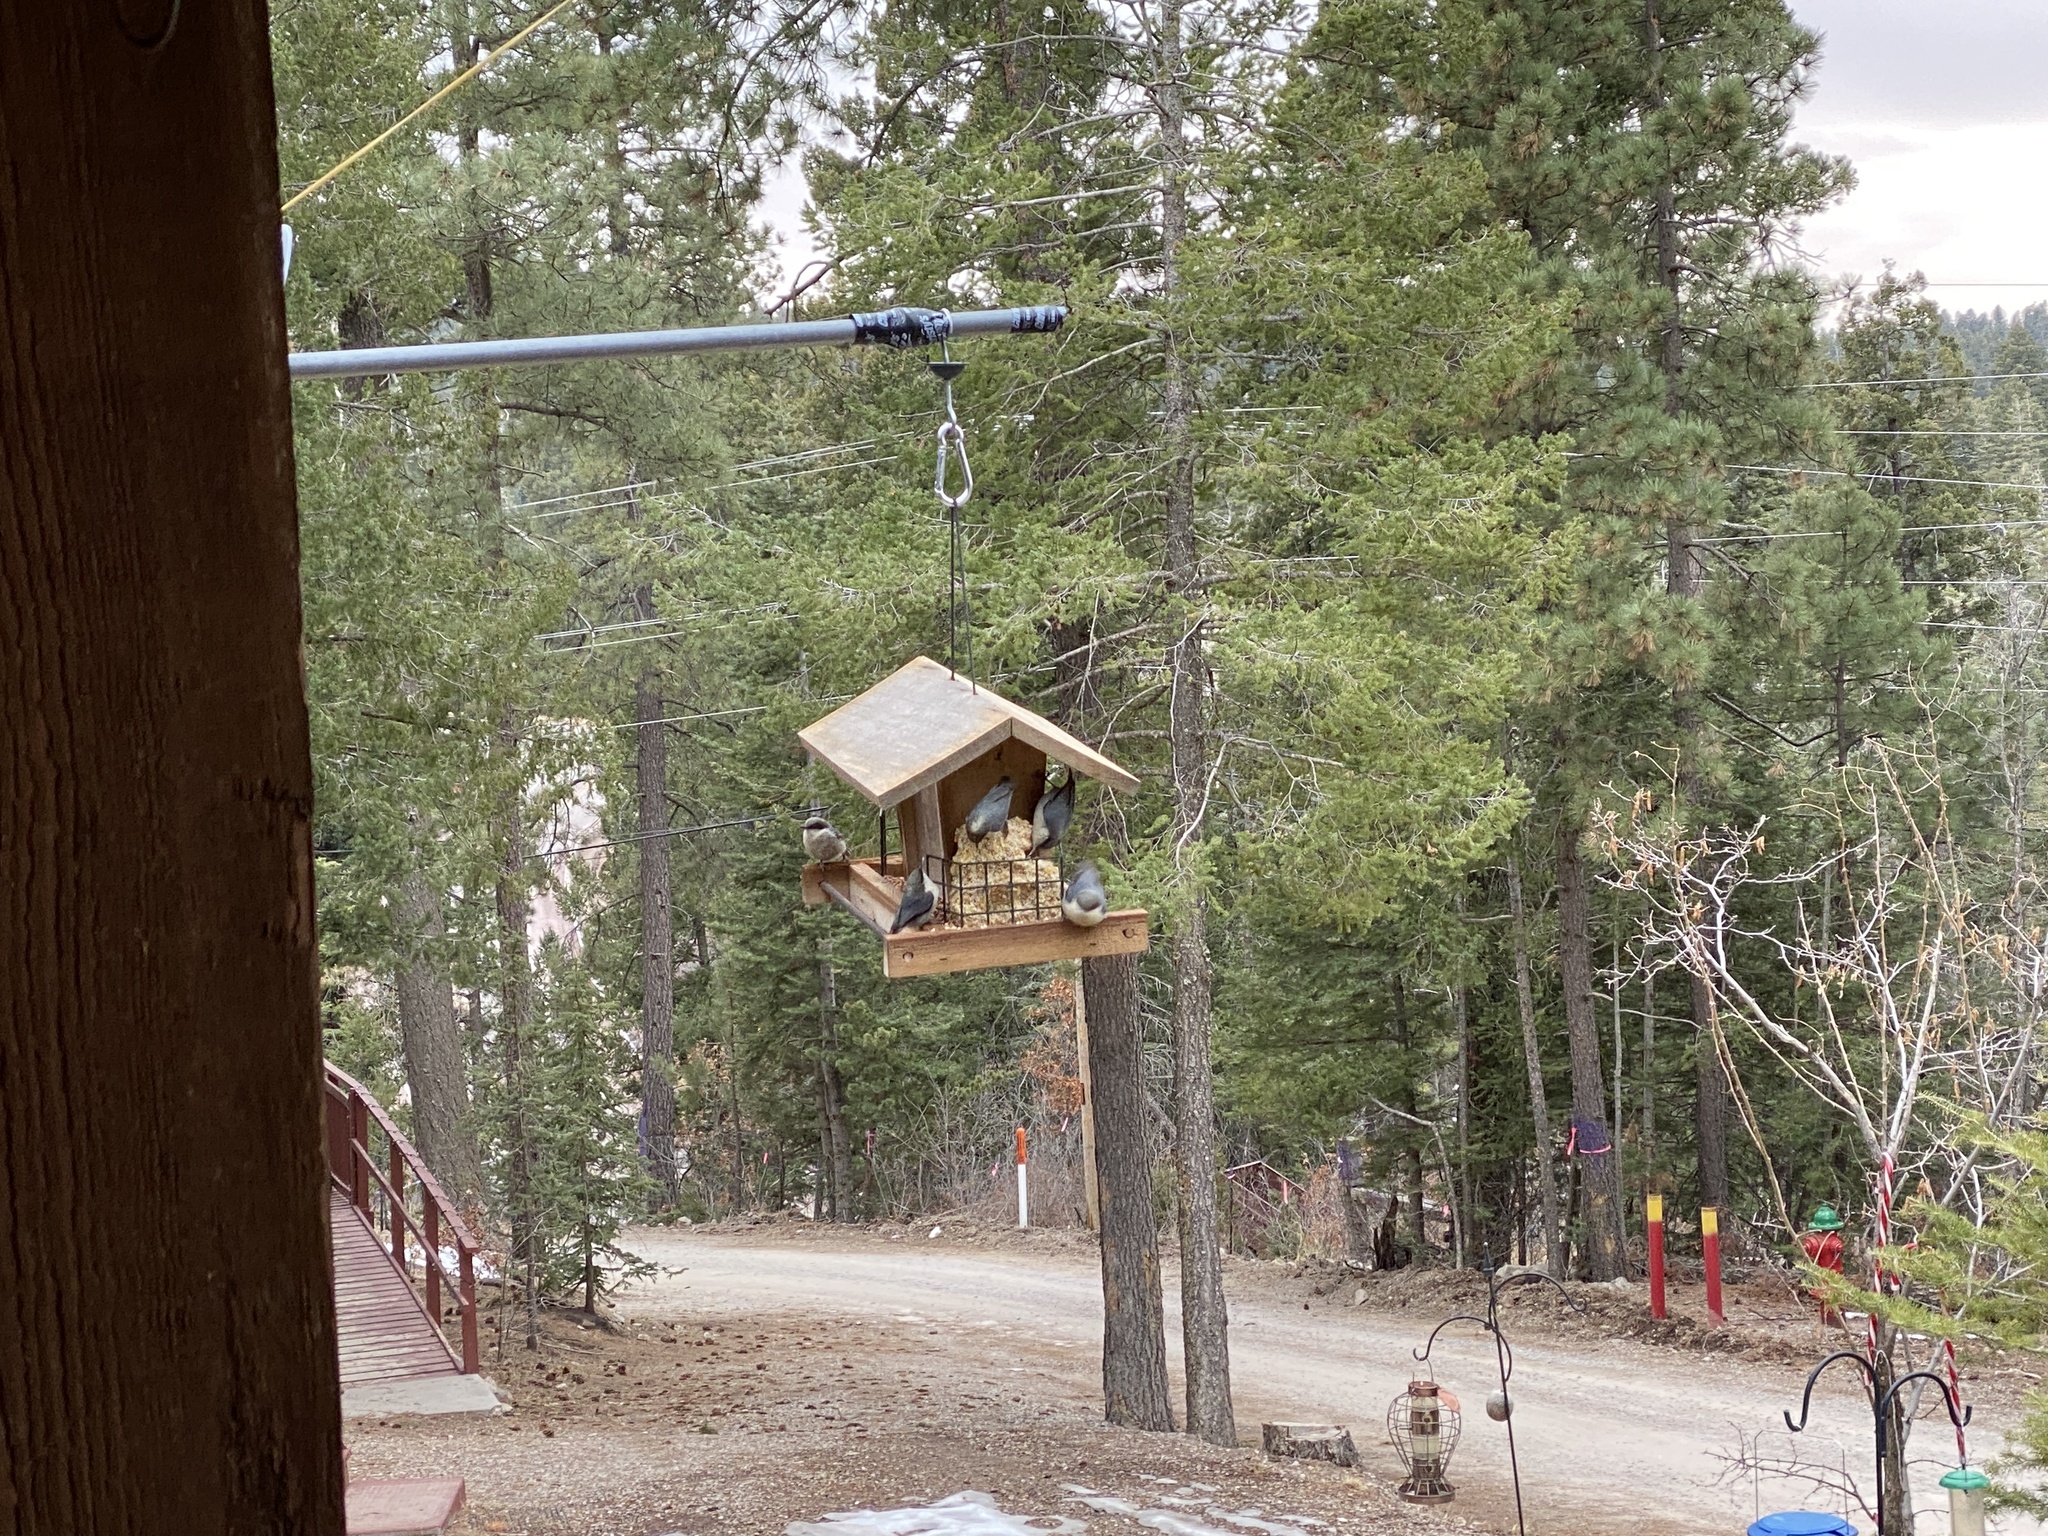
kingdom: Animalia
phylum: Chordata
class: Aves
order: Passeriformes
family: Sittidae
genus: Sitta
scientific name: Sitta pygmaea
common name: Pygmy nuthatch
